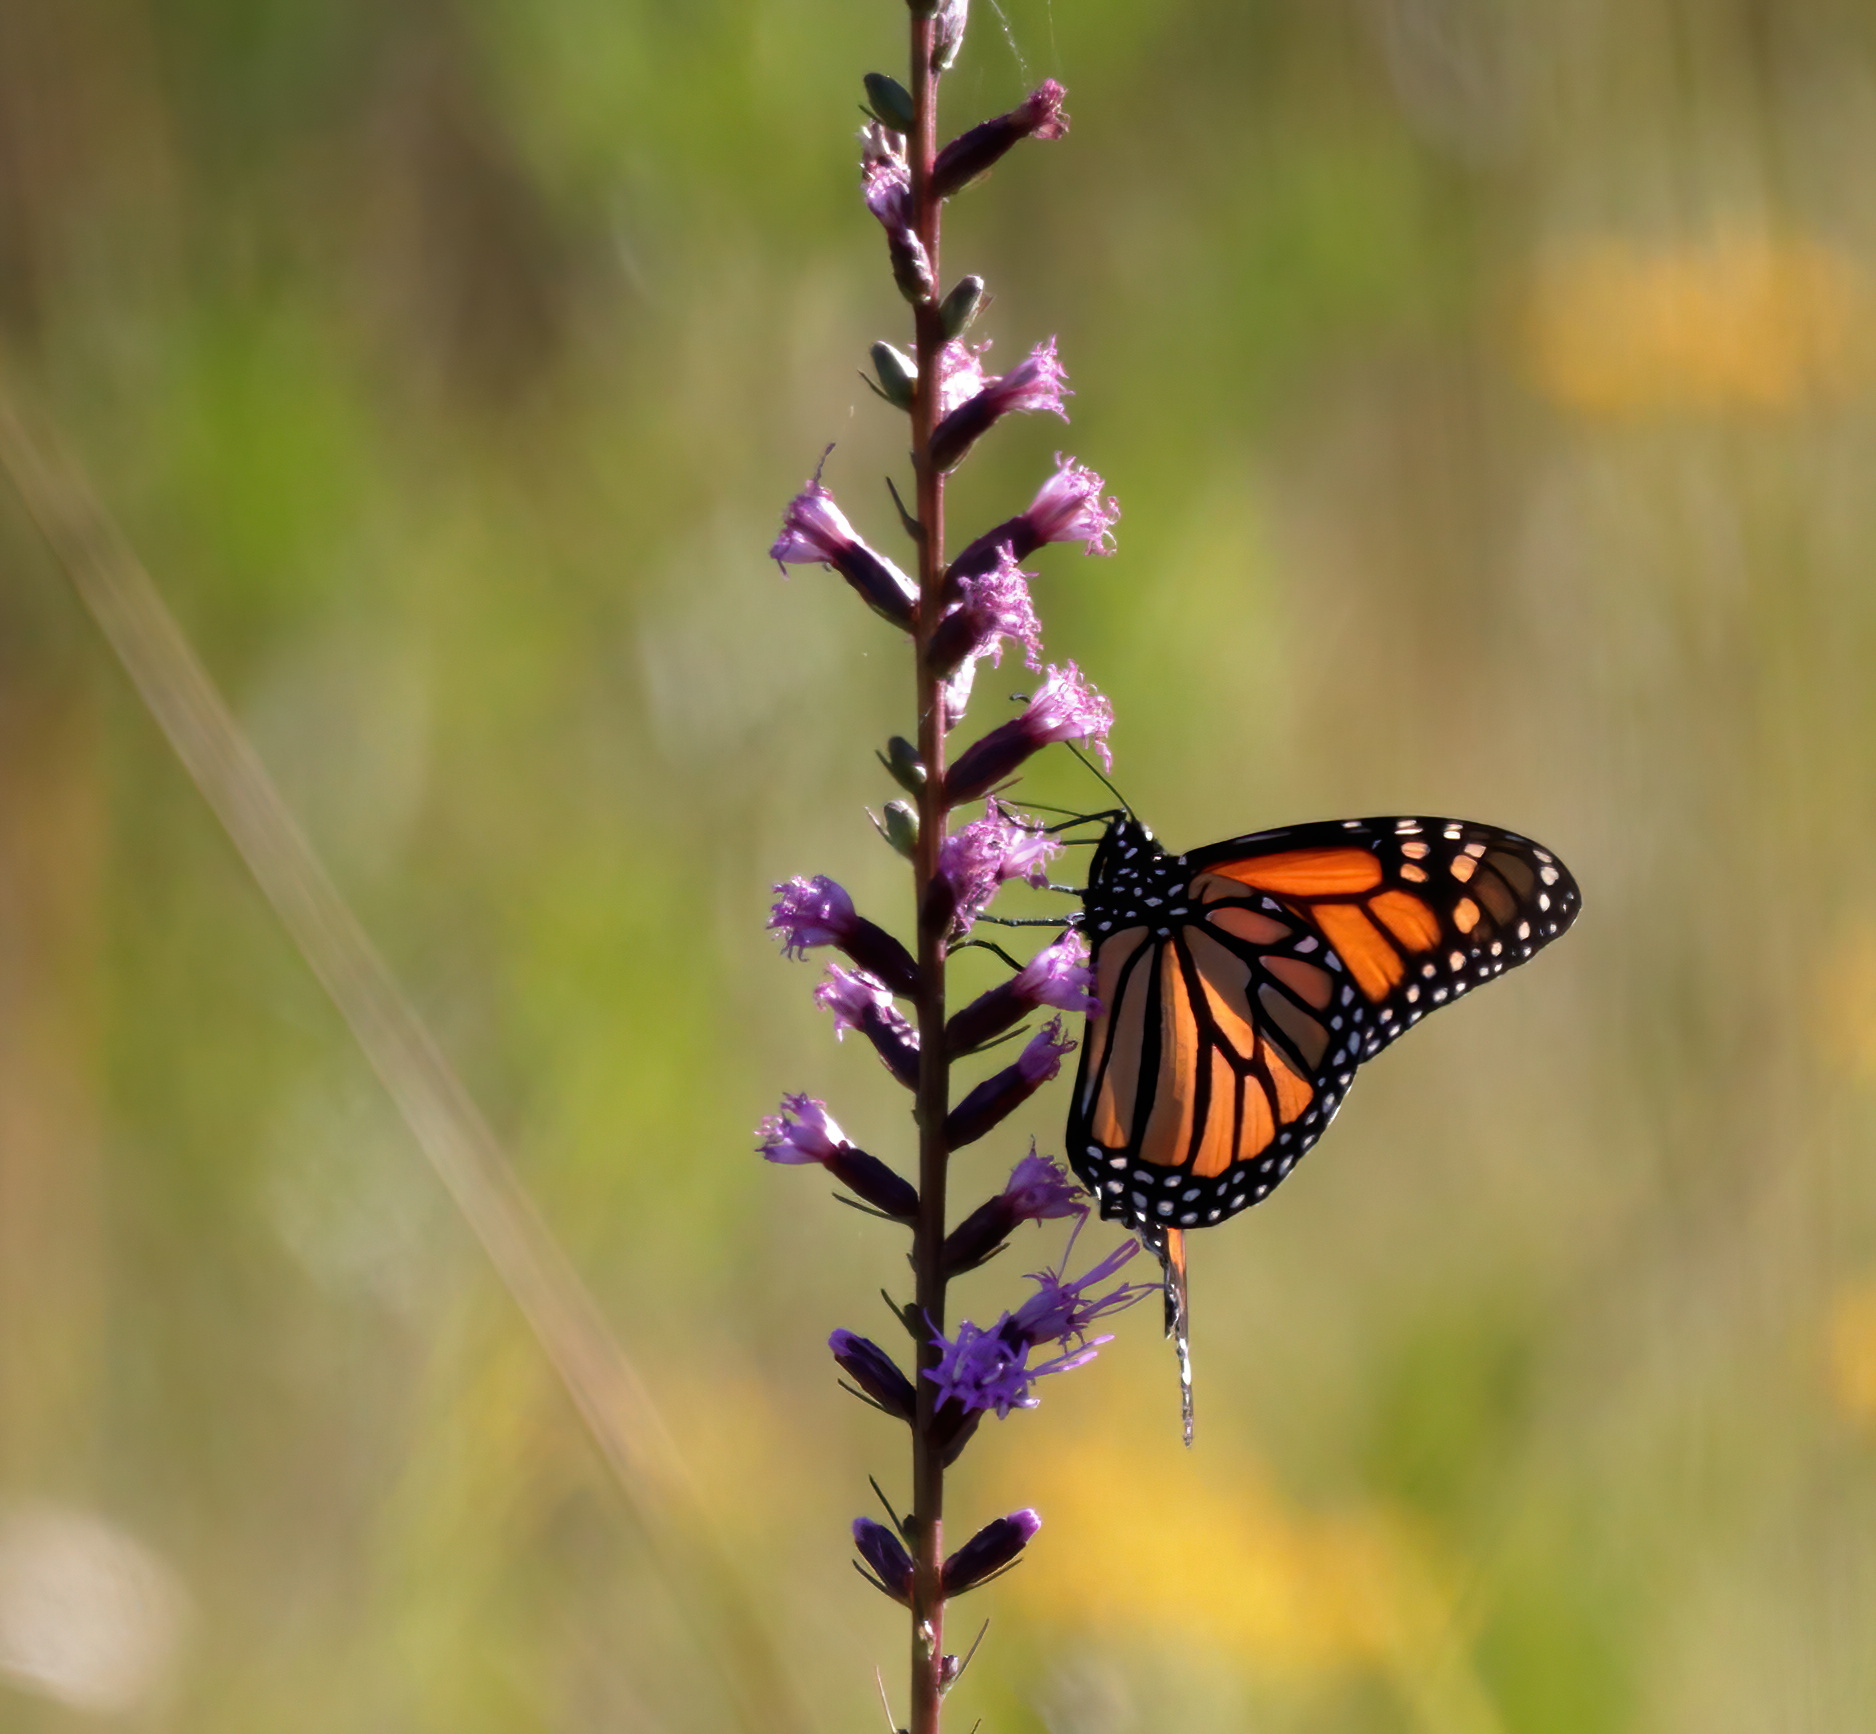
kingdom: Animalia
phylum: Arthropoda
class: Insecta
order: Lepidoptera
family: Nymphalidae
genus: Danaus
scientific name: Danaus plexippus
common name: Monarch
